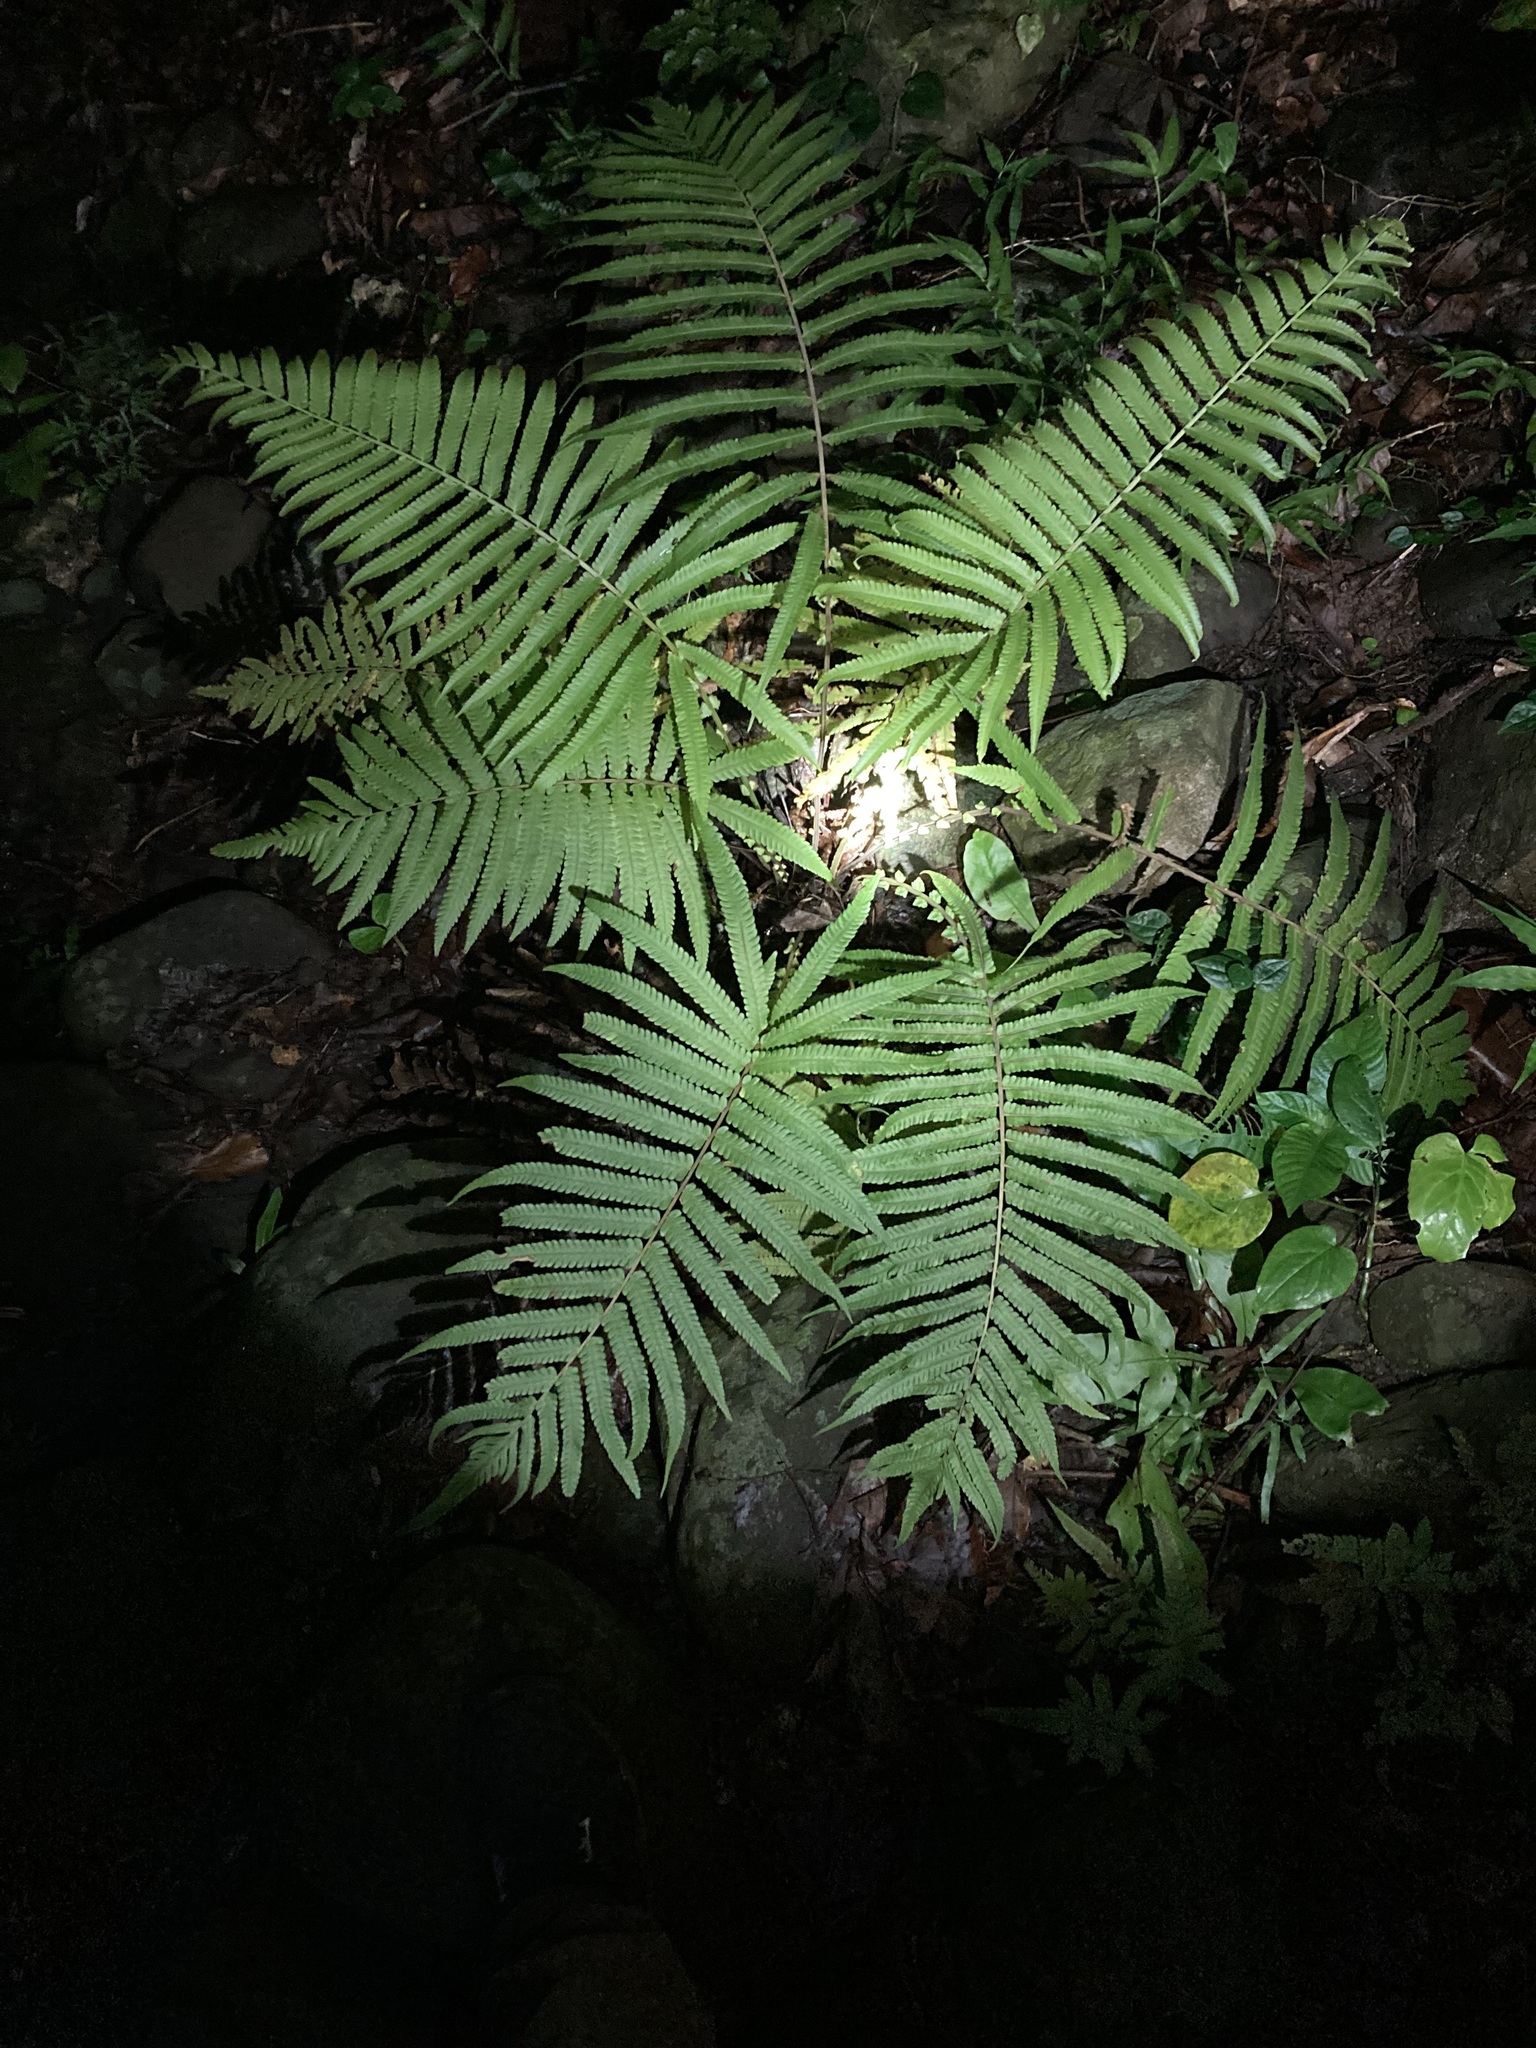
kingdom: Plantae
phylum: Tracheophyta
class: Polypodiopsida
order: Polypodiales
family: Thelypteridaceae
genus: Sphaerostephanos
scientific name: Sphaerostephanos productus
